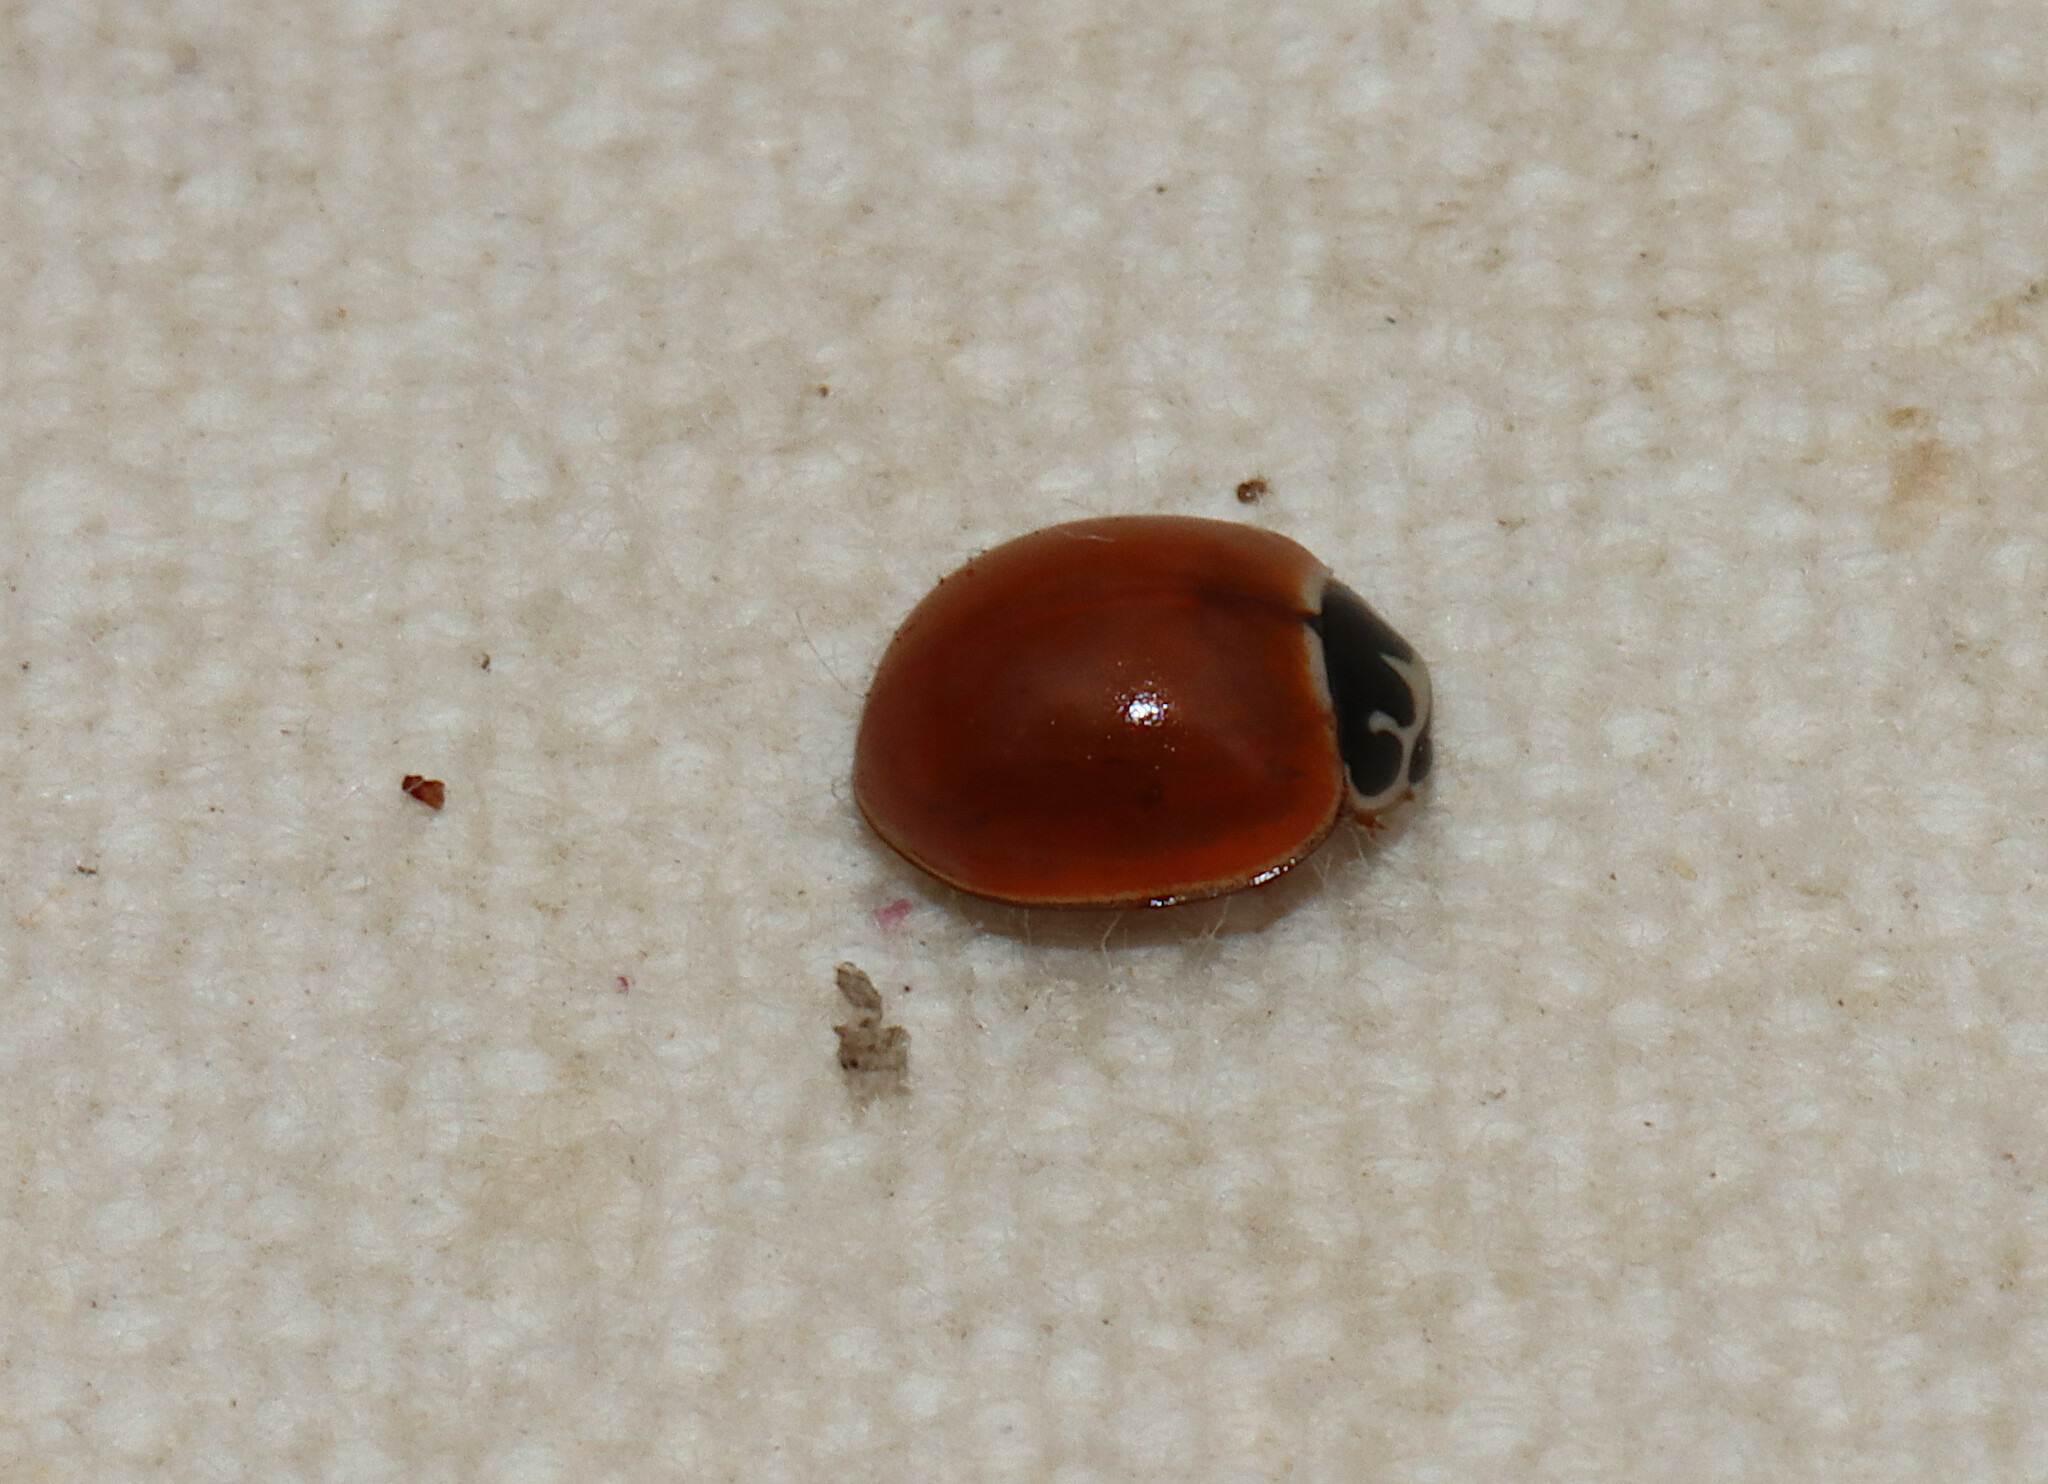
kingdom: Animalia
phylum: Arthropoda
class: Insecta
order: Coleoptera
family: Coccinellidae
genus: Cycloneda
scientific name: Cycloneda munda
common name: Polished lady beetle
